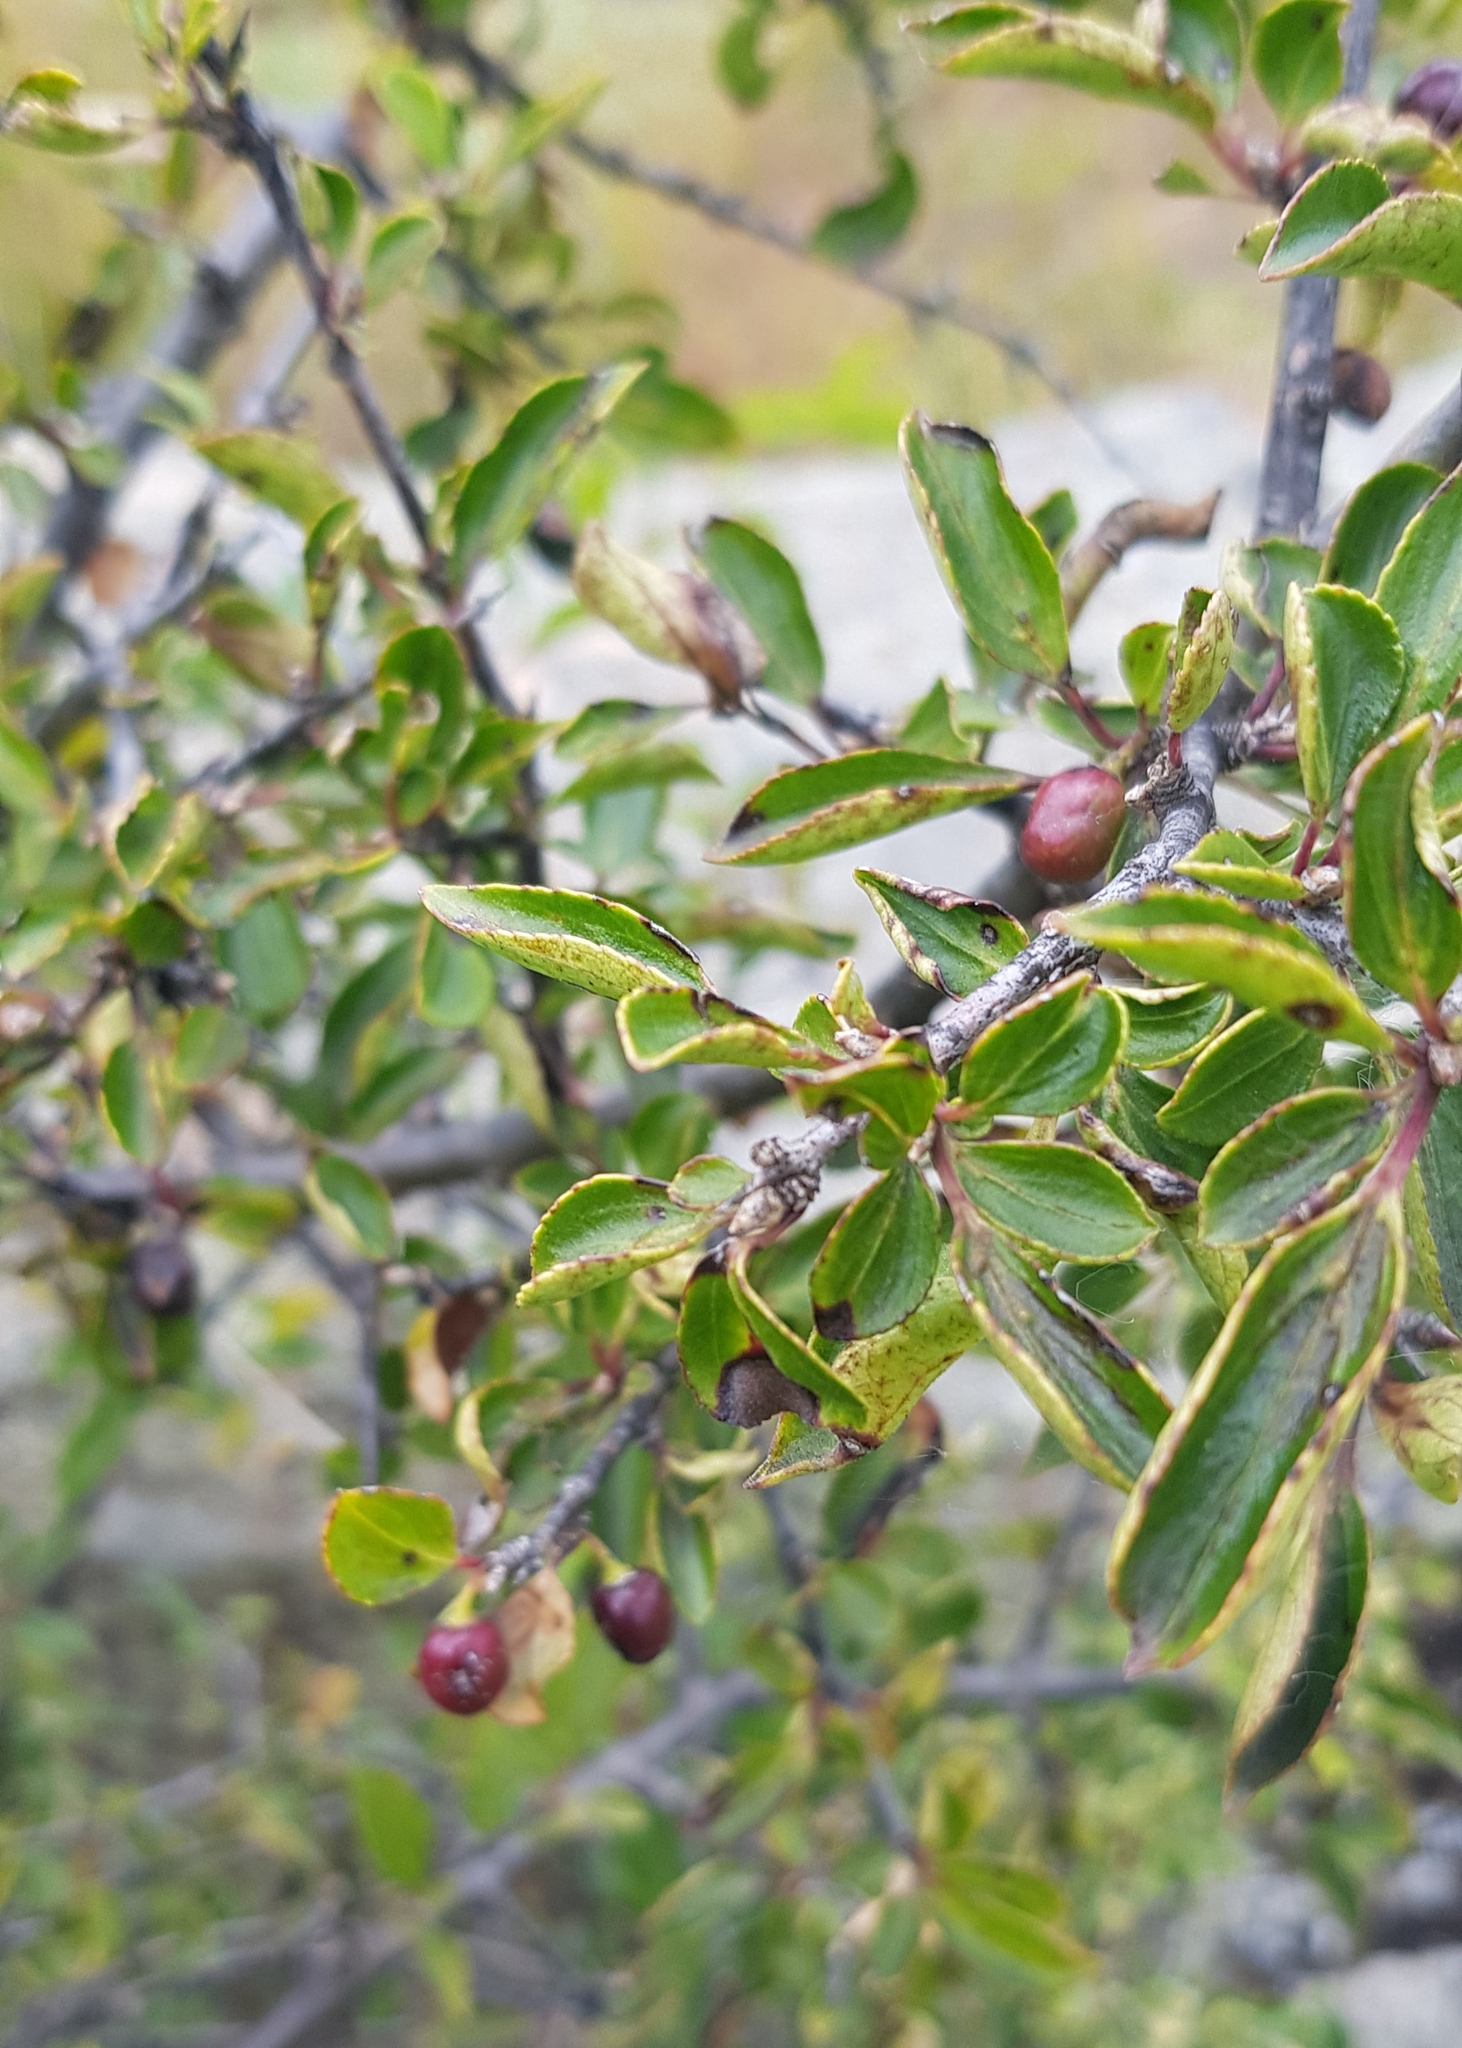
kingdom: Plantae
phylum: Tracheophyta
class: Magnoliopsida
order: Rosales
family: Rhamnaceae
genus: Rhamnus
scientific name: Rhamnus parvifolia
